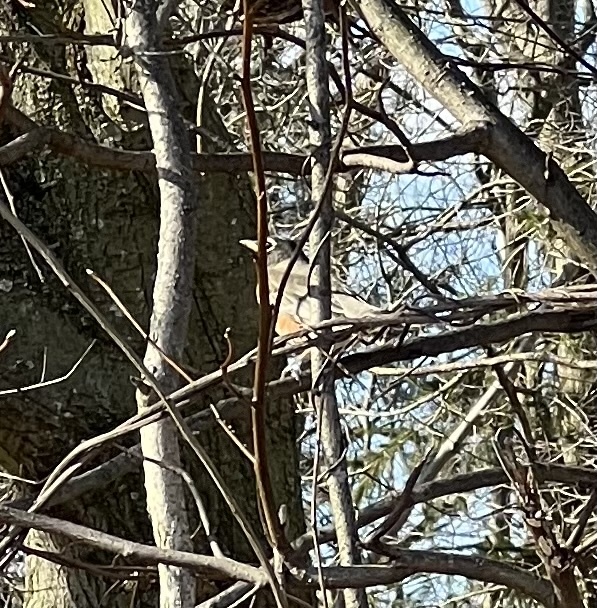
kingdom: Animalia
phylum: Chordata
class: Aves
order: Passeriformes
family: Turdidae
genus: Turdus
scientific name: Turdus migratorius
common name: American robin
